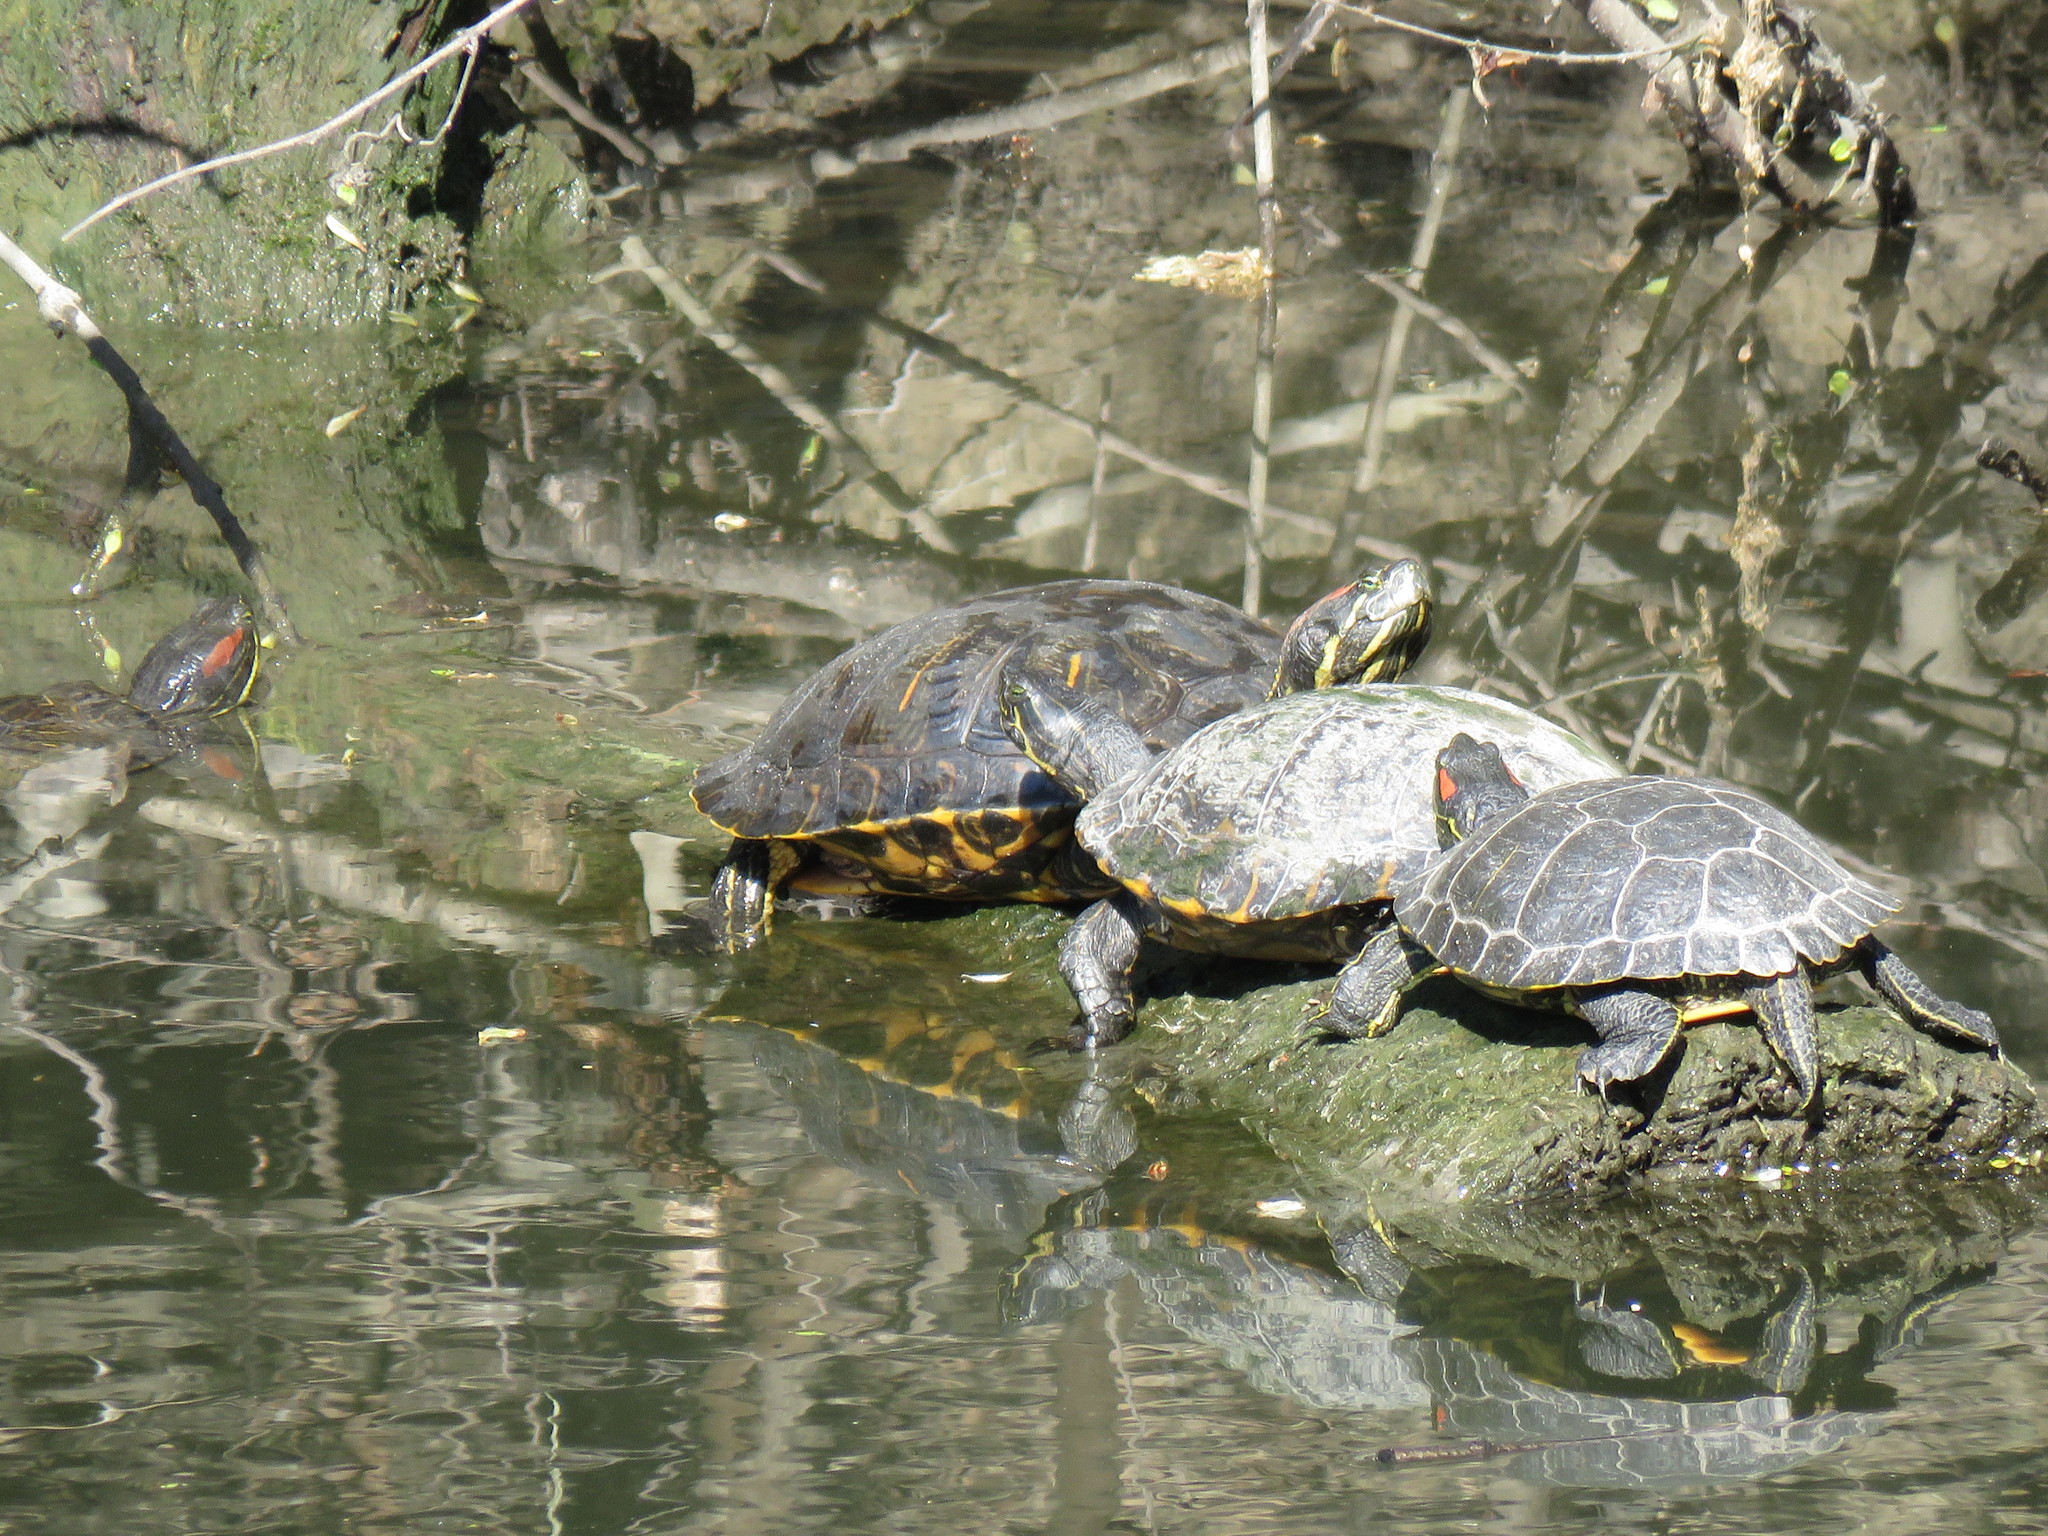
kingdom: Animalia
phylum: Chordata
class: Testudines
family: Emydidae
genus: Pseudemys
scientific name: Pseudemys concinna
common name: Eastern river cooter
